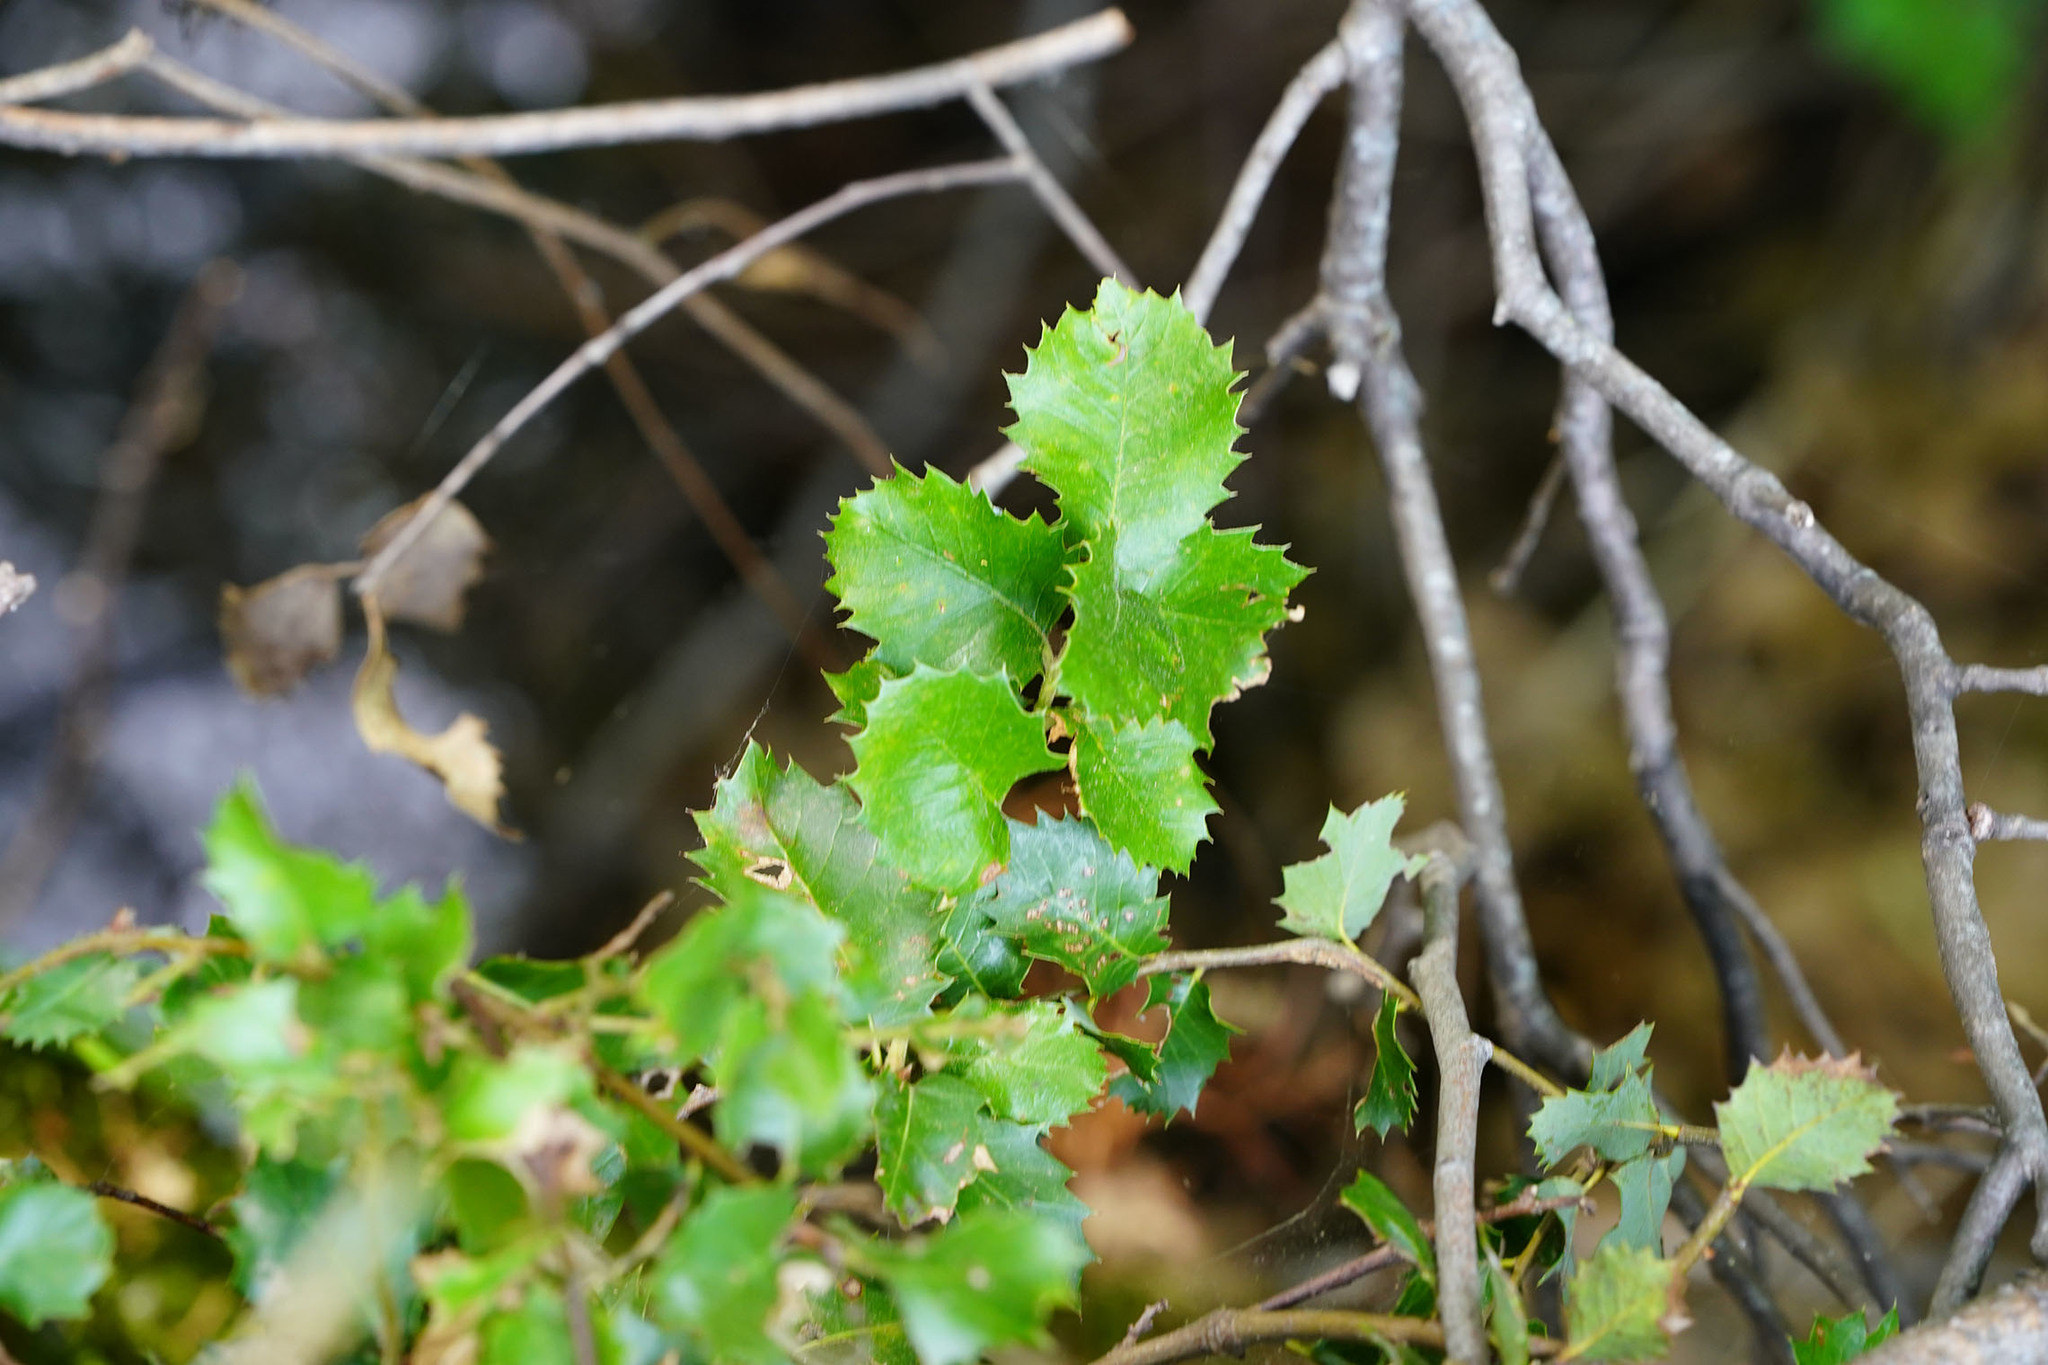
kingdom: Plantae
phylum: Tracheophyta
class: Magnoliopsida
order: Fagales
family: Fagaceae
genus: Quercus
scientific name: Quercus chrysolepis
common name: Canyon live oak
